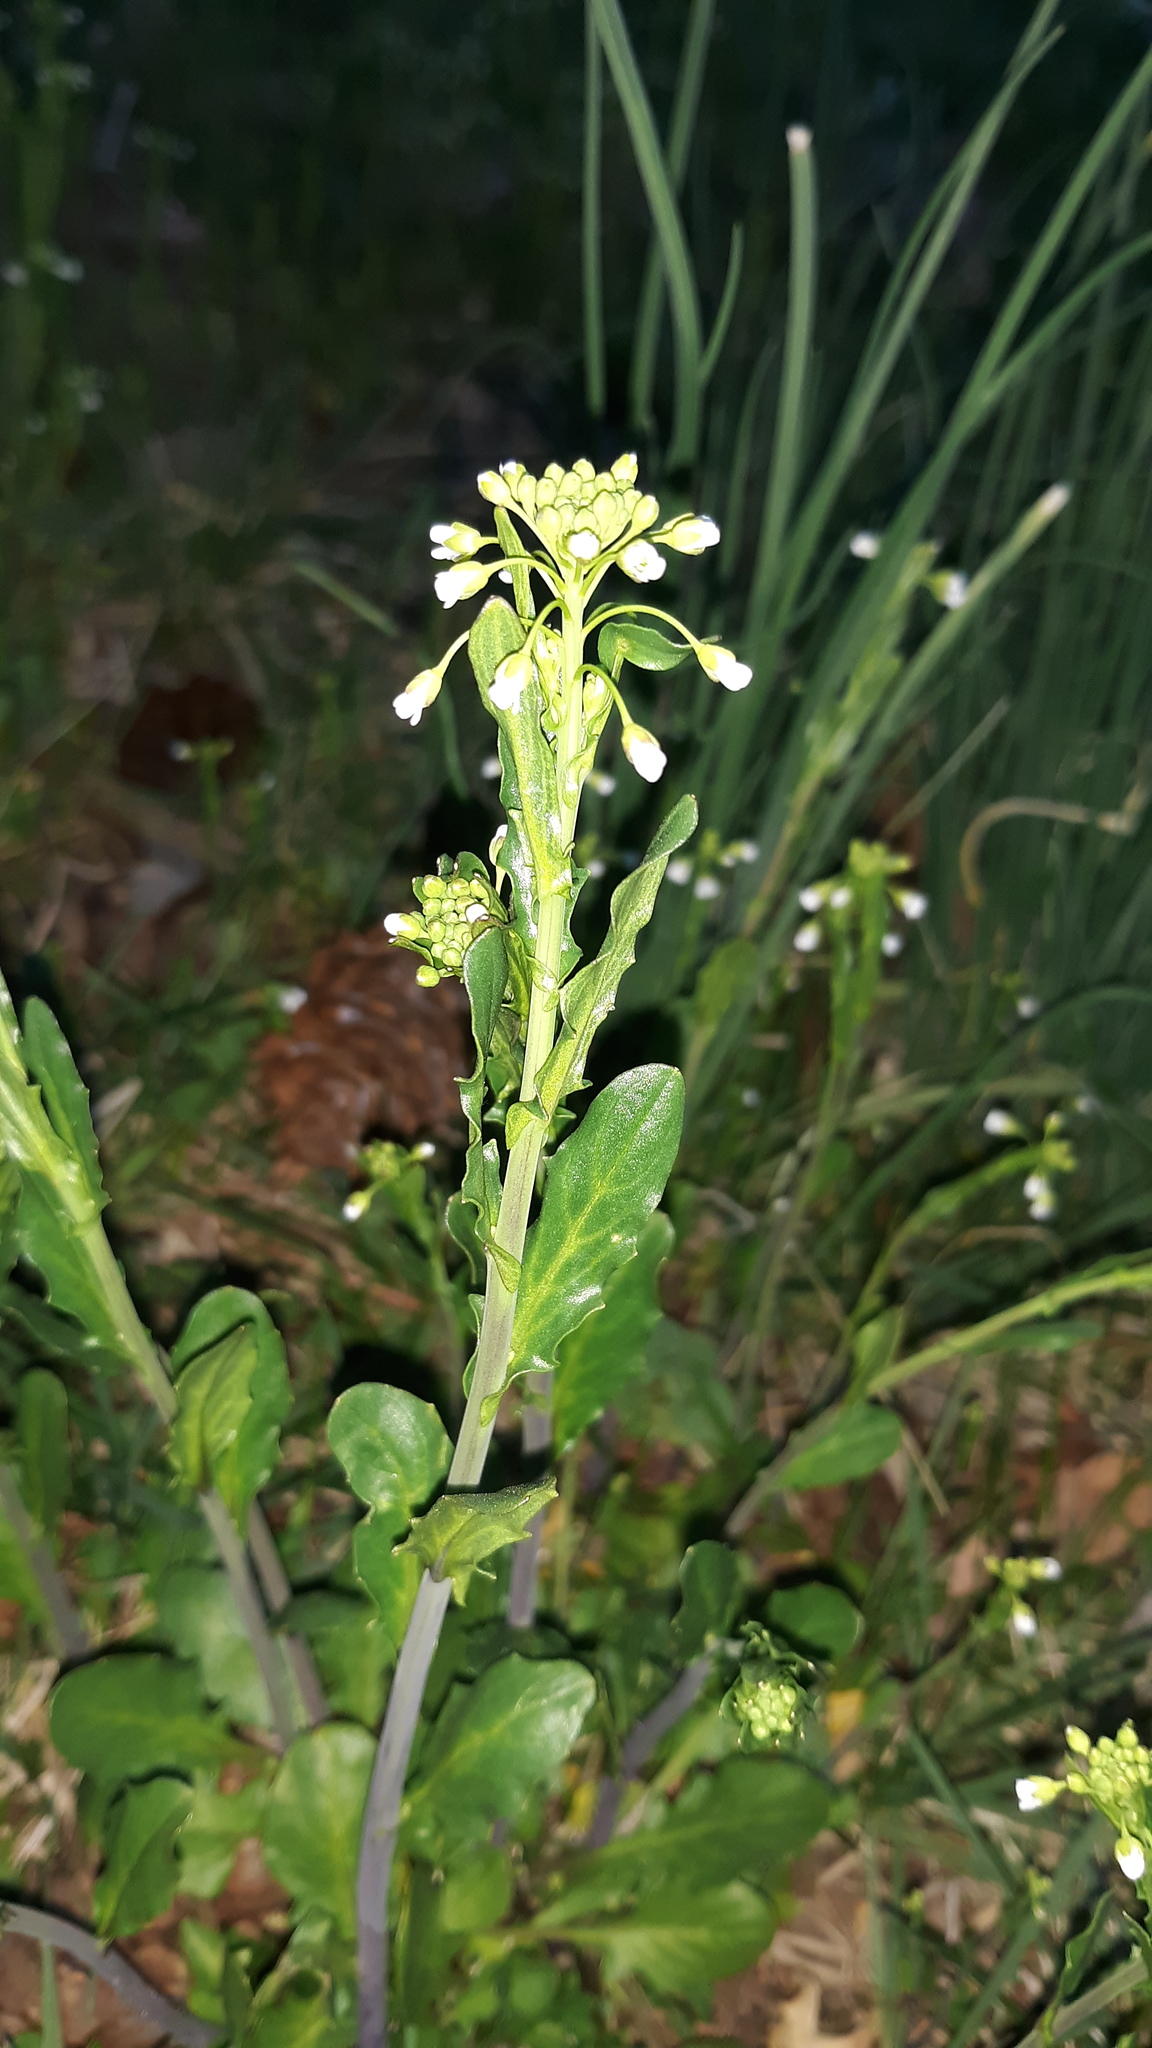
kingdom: Plantae
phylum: Tracheophyta
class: Magnoliopsida
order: Brassicales
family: Brassicaceae
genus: Mummenhoffia
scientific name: Mummenhoffia alliacea
